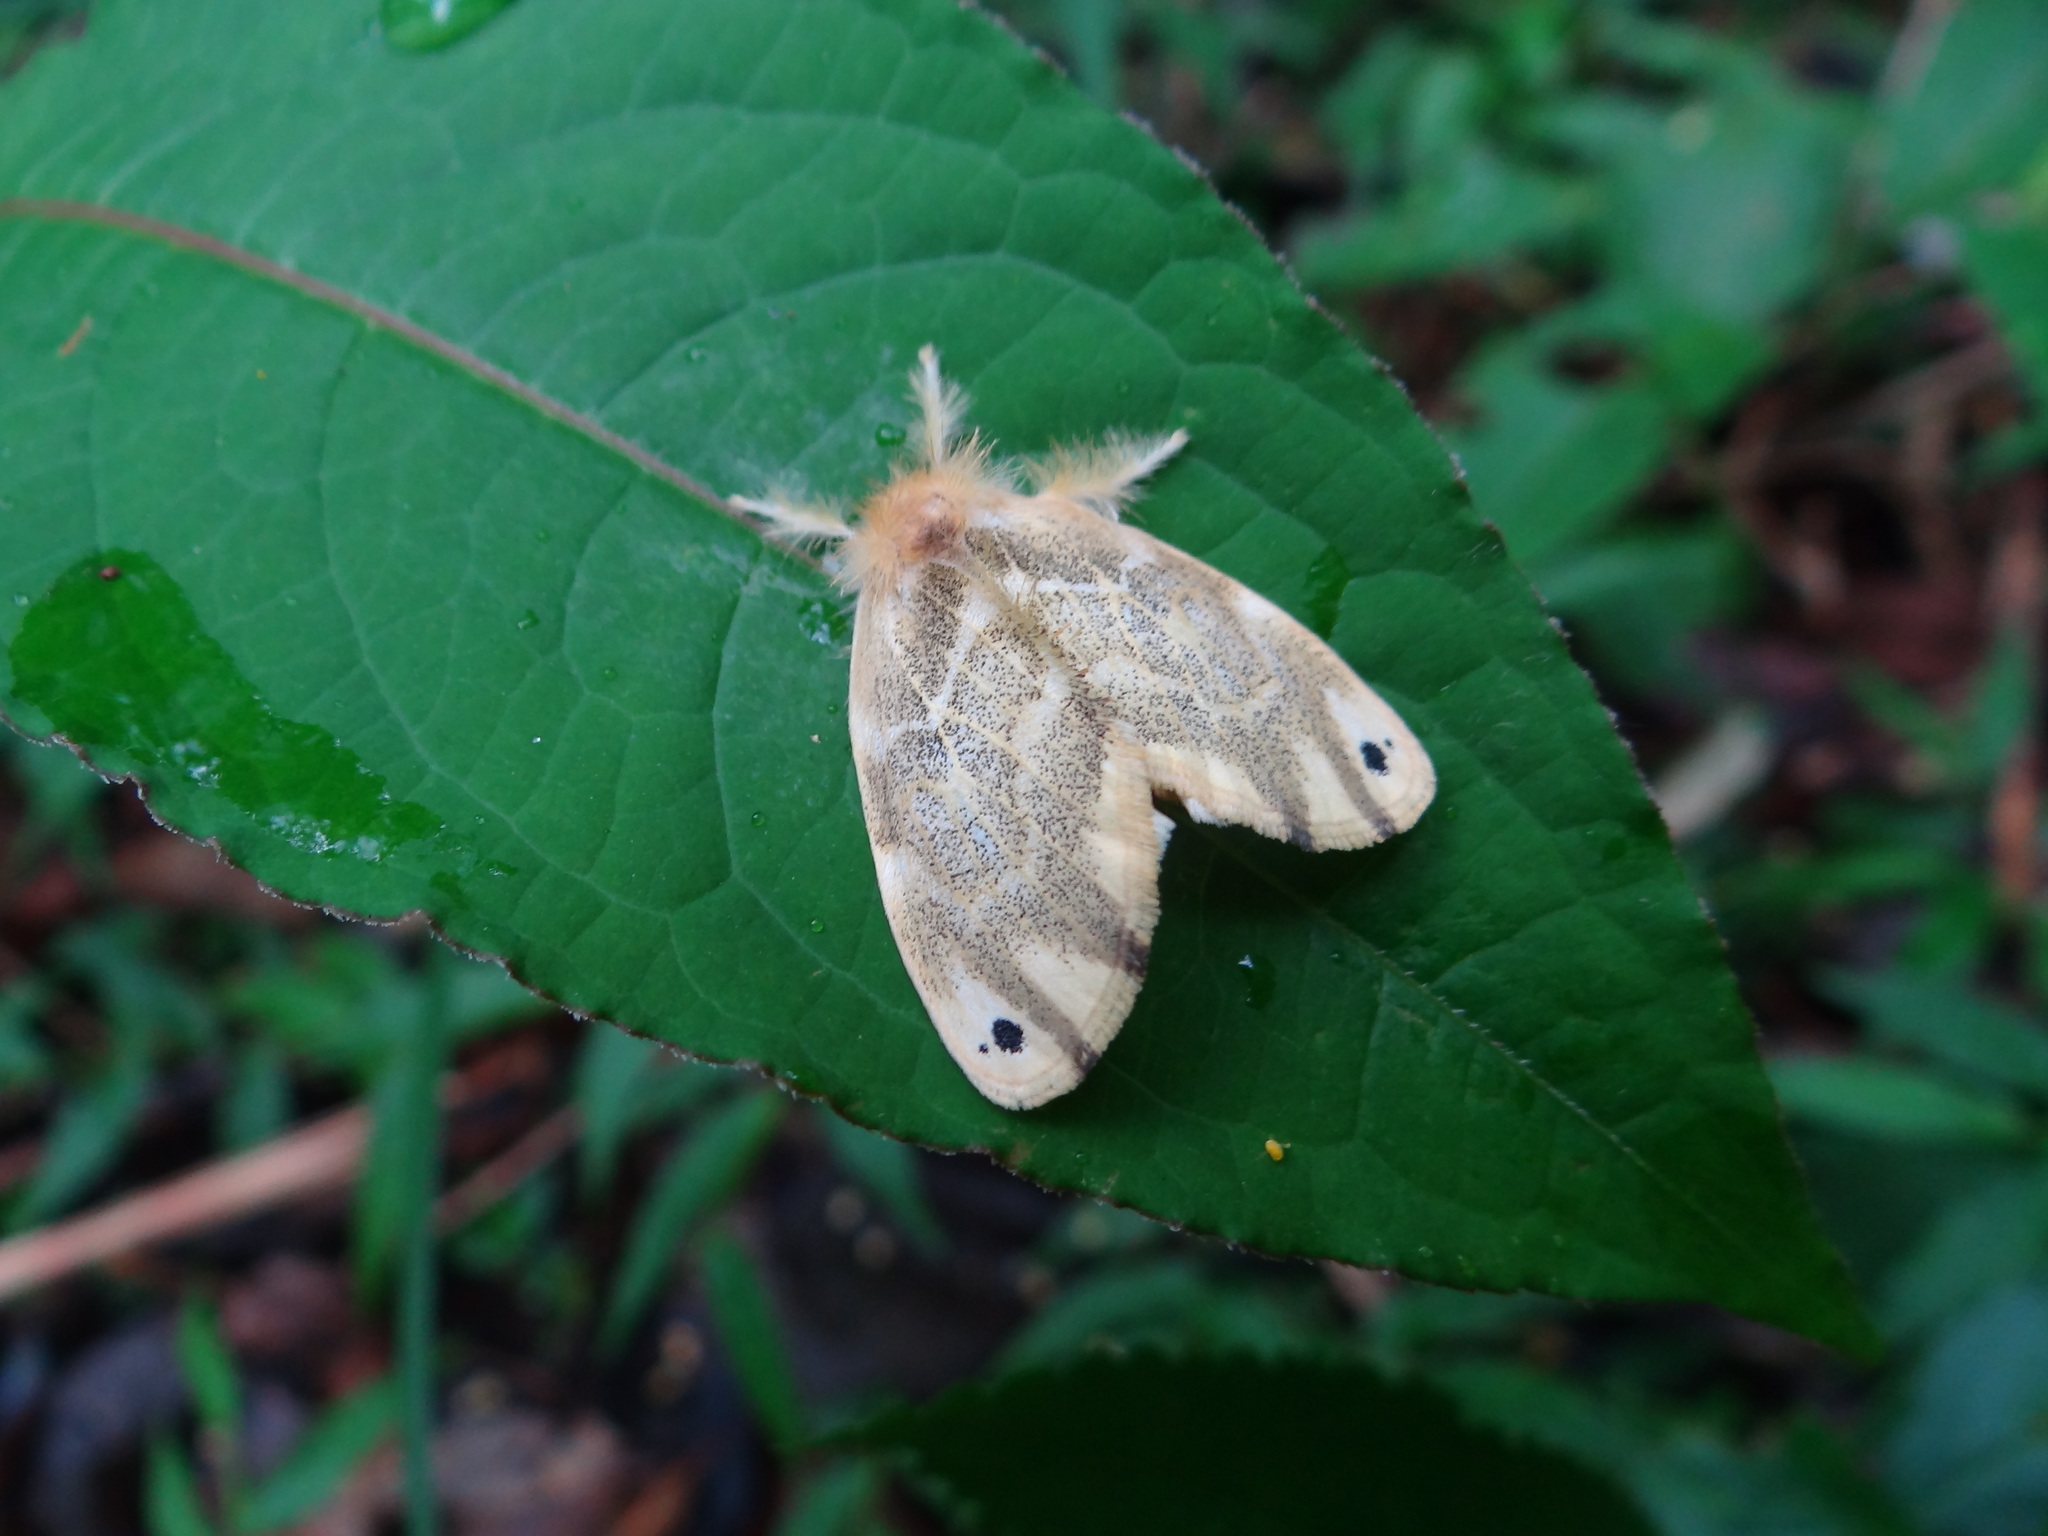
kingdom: Animalia
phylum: Arthropoda
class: Insecta
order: Lepidoptera
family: Erebidae
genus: Euproctis
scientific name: Euproctis kanshireia
